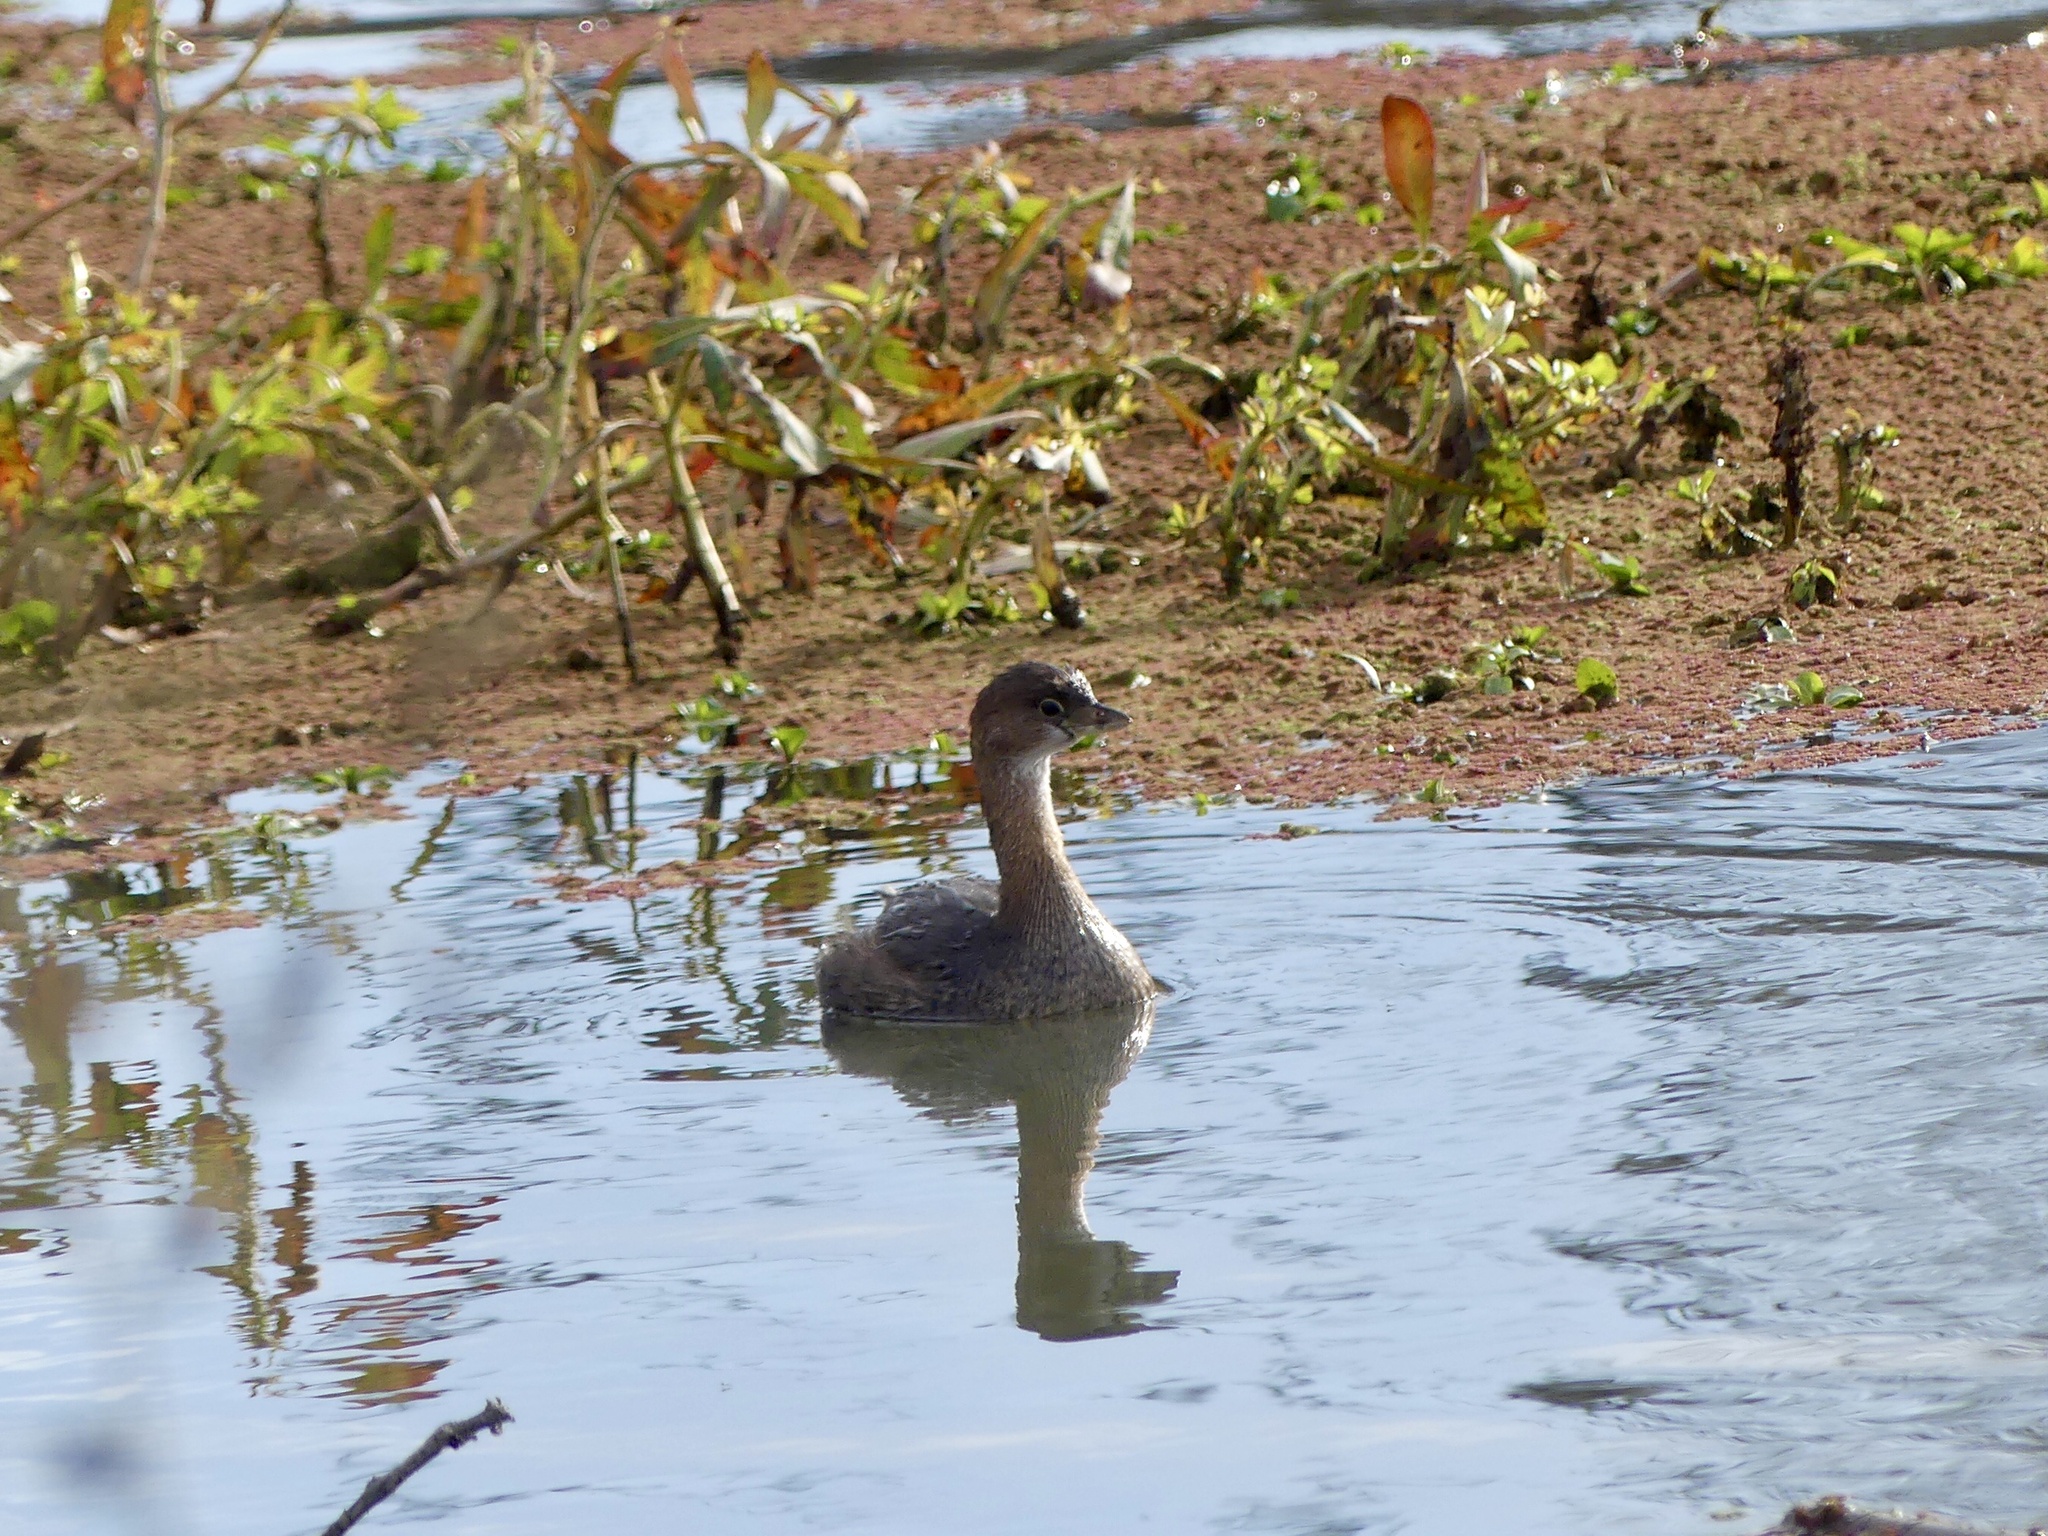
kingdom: Animalia
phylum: Chordata
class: Aves
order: Podicipediformes
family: Podicipedidae
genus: Podilymbus
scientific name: Podilymbus podiceps
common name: Pied-billed grebe
